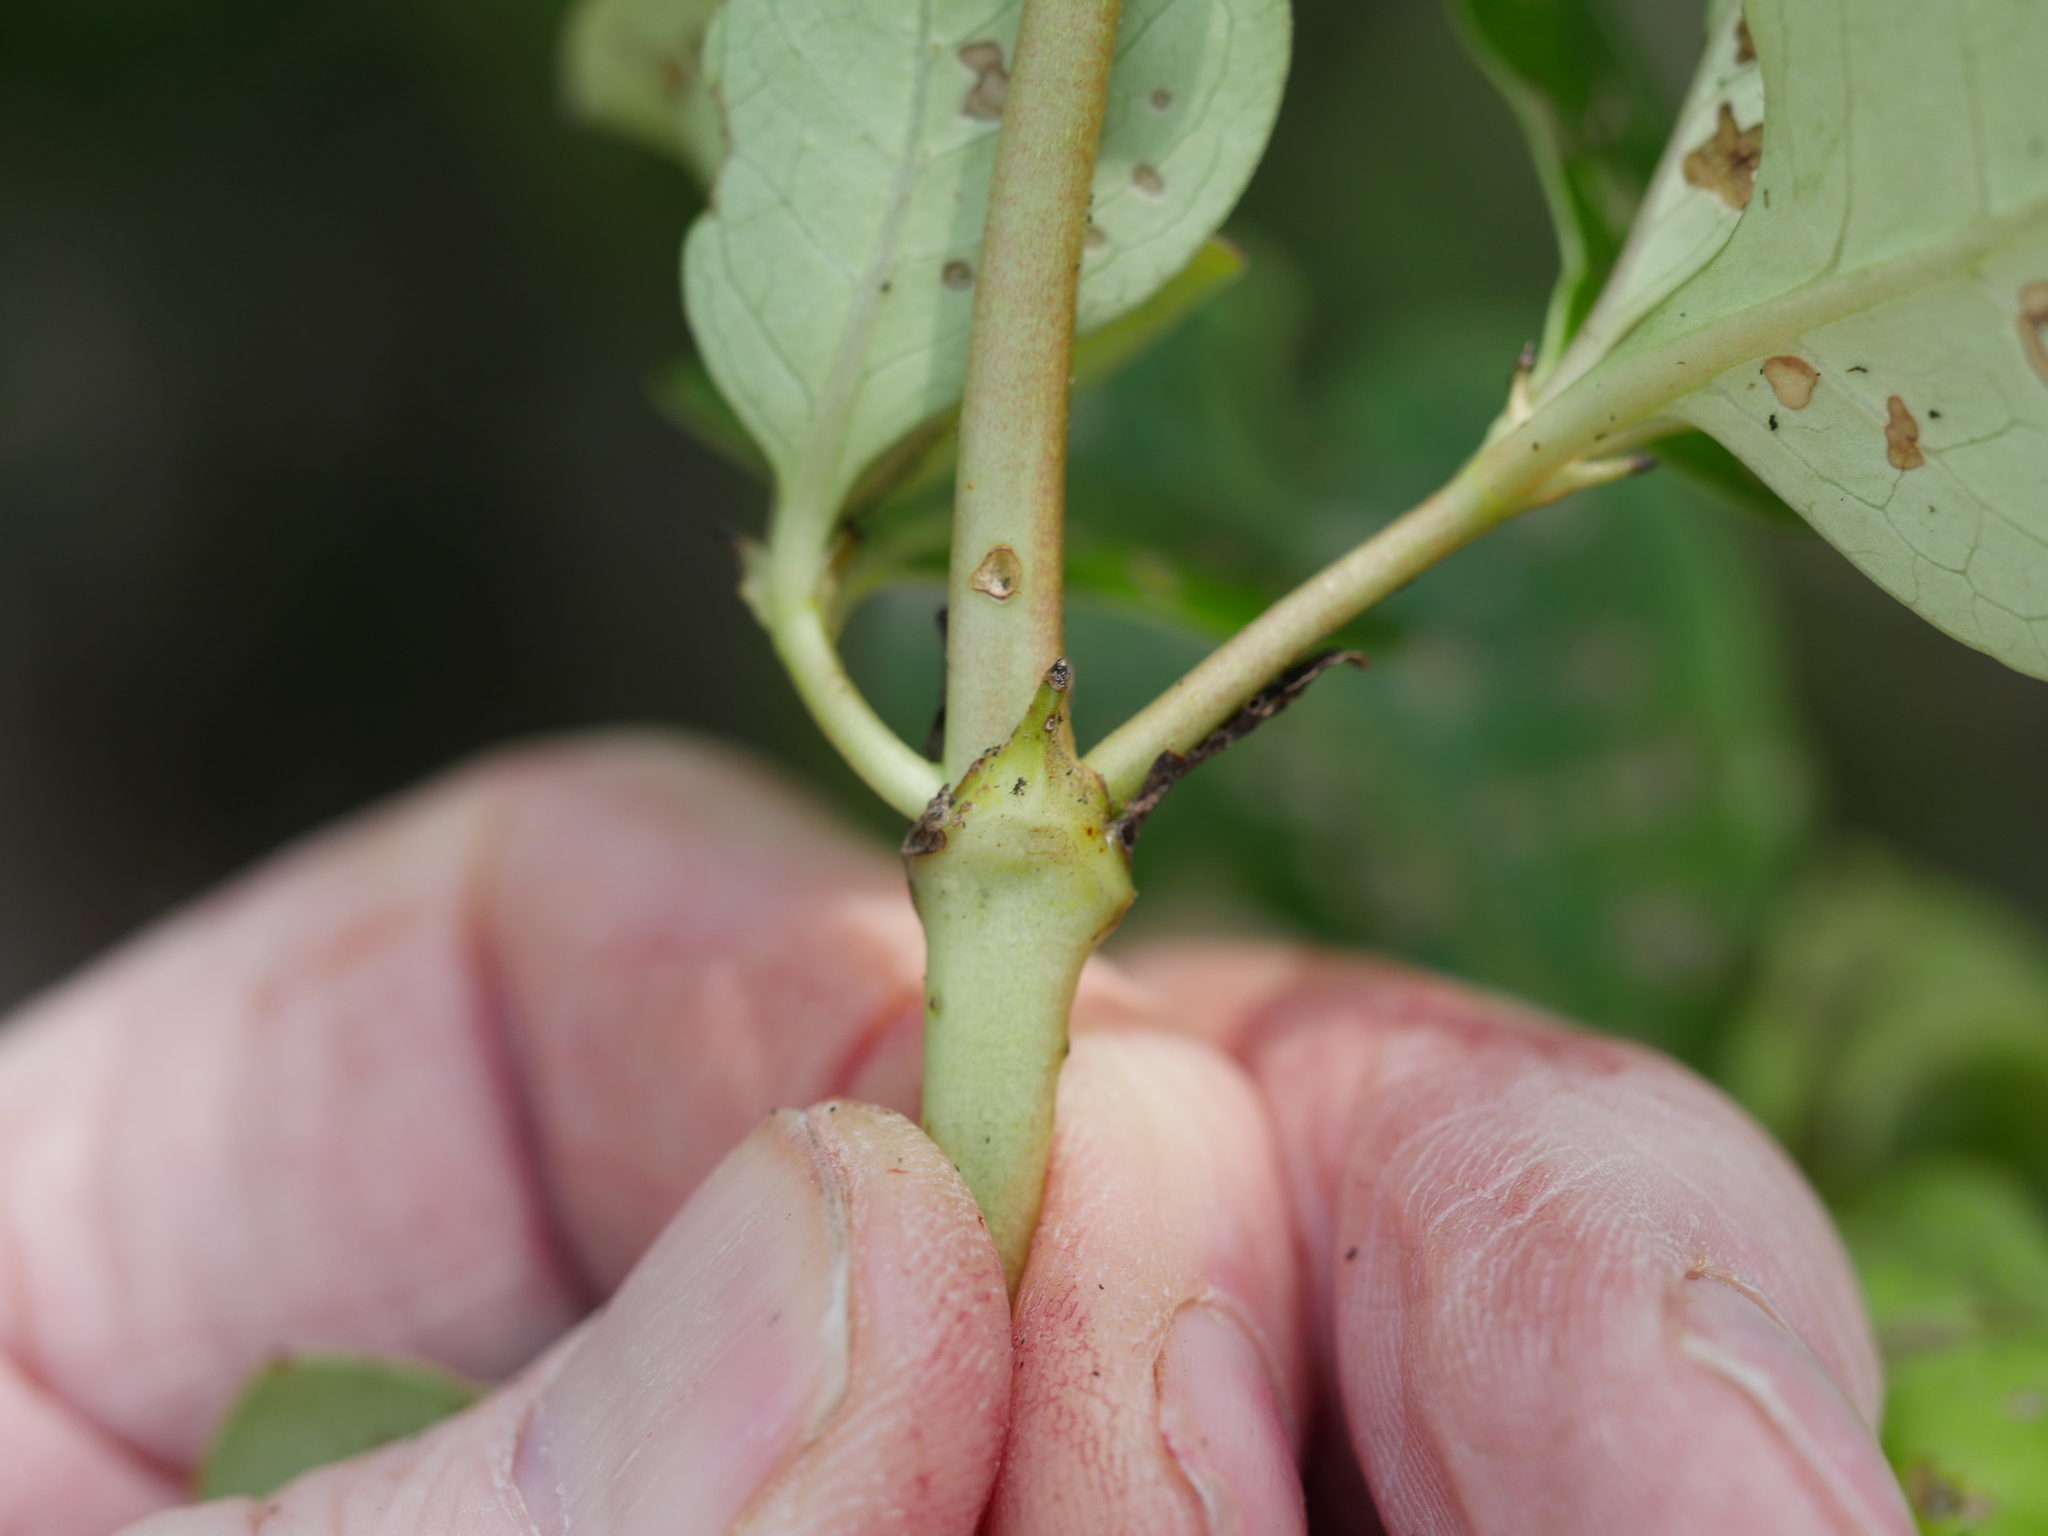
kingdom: Plantae
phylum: Tracheophyta
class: Magnoliopsida
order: Gentianales
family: Rubiaceae
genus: Coprosma
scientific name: Coprosma macrocarpa
